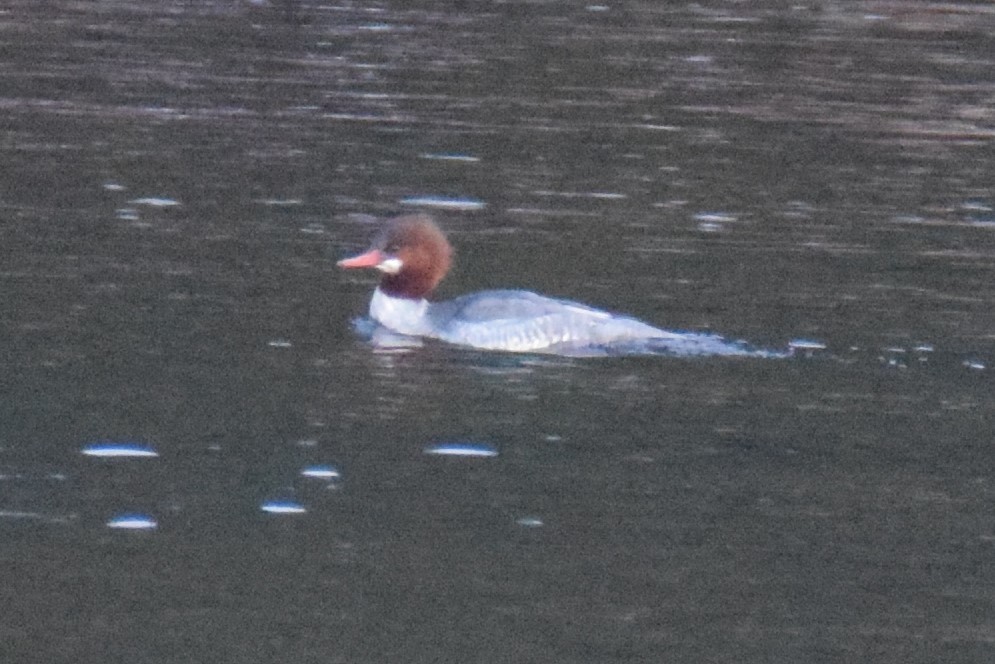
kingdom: Animalia
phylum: Chordata
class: Aves
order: Anseriformes
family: Anatidae
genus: Mergus
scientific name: Mergus merganser
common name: Common merganser
